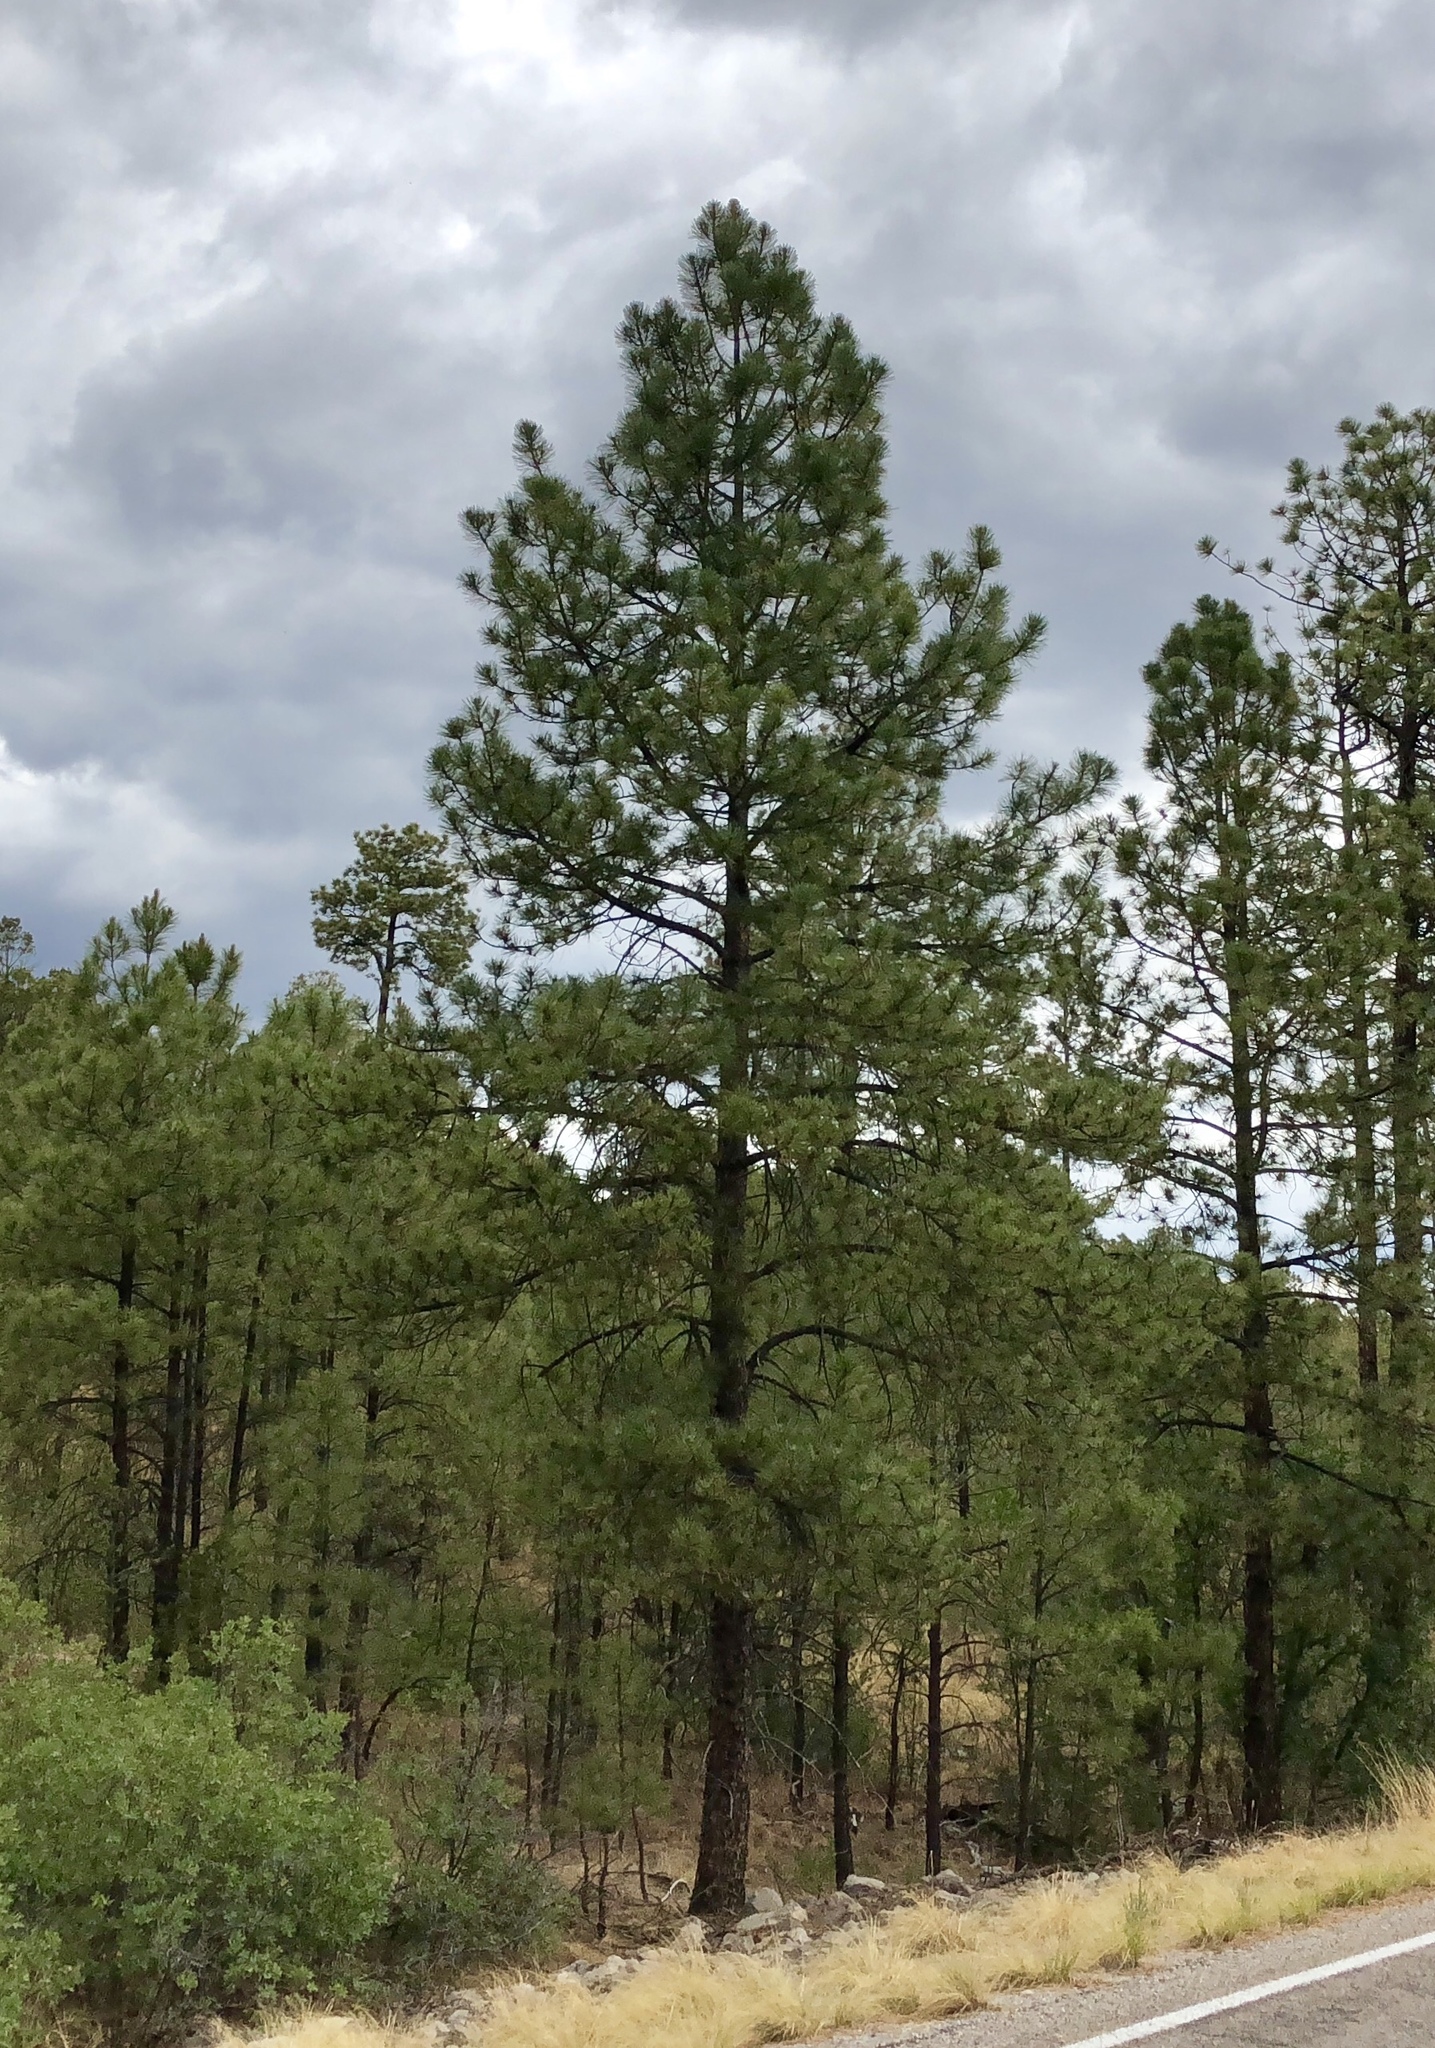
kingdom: Plantae
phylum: Tracheophyta
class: Pinopsida
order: Pinales
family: Pinaceae
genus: Pinus
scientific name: Pinus ponderosa
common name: Western yellow-pine
